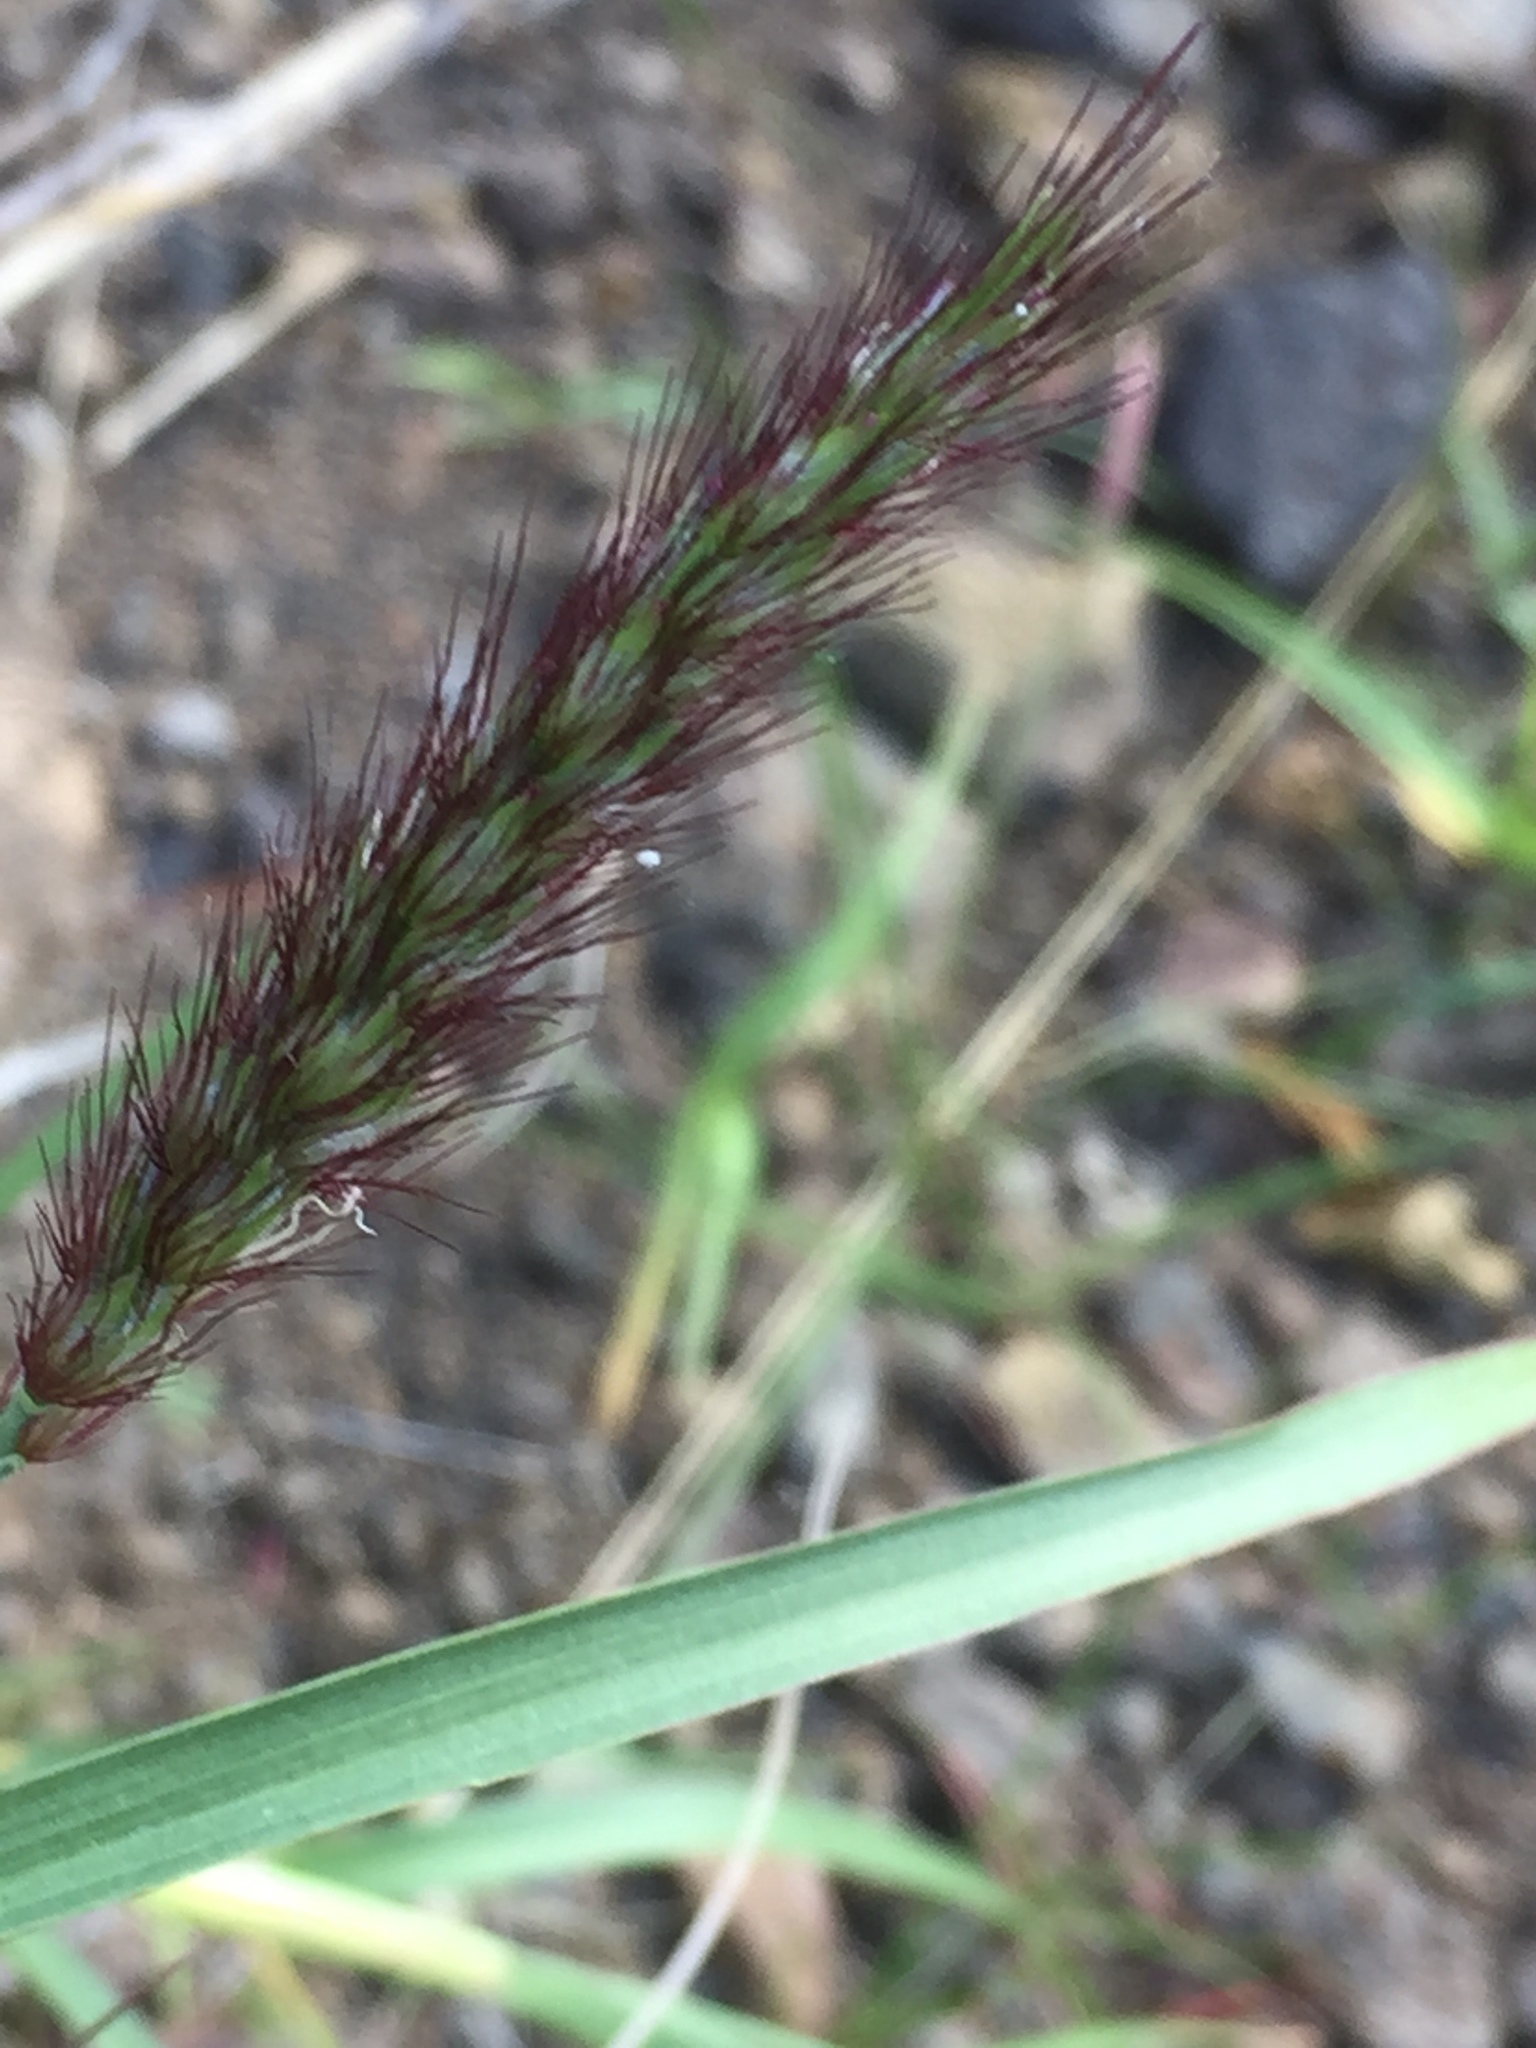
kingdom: Plantae
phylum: Tracheophyta
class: Liliopsida
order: Poales
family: Poaceae
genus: Cenchrus
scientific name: Cenchrus ciliaris
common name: Buffelgrass
